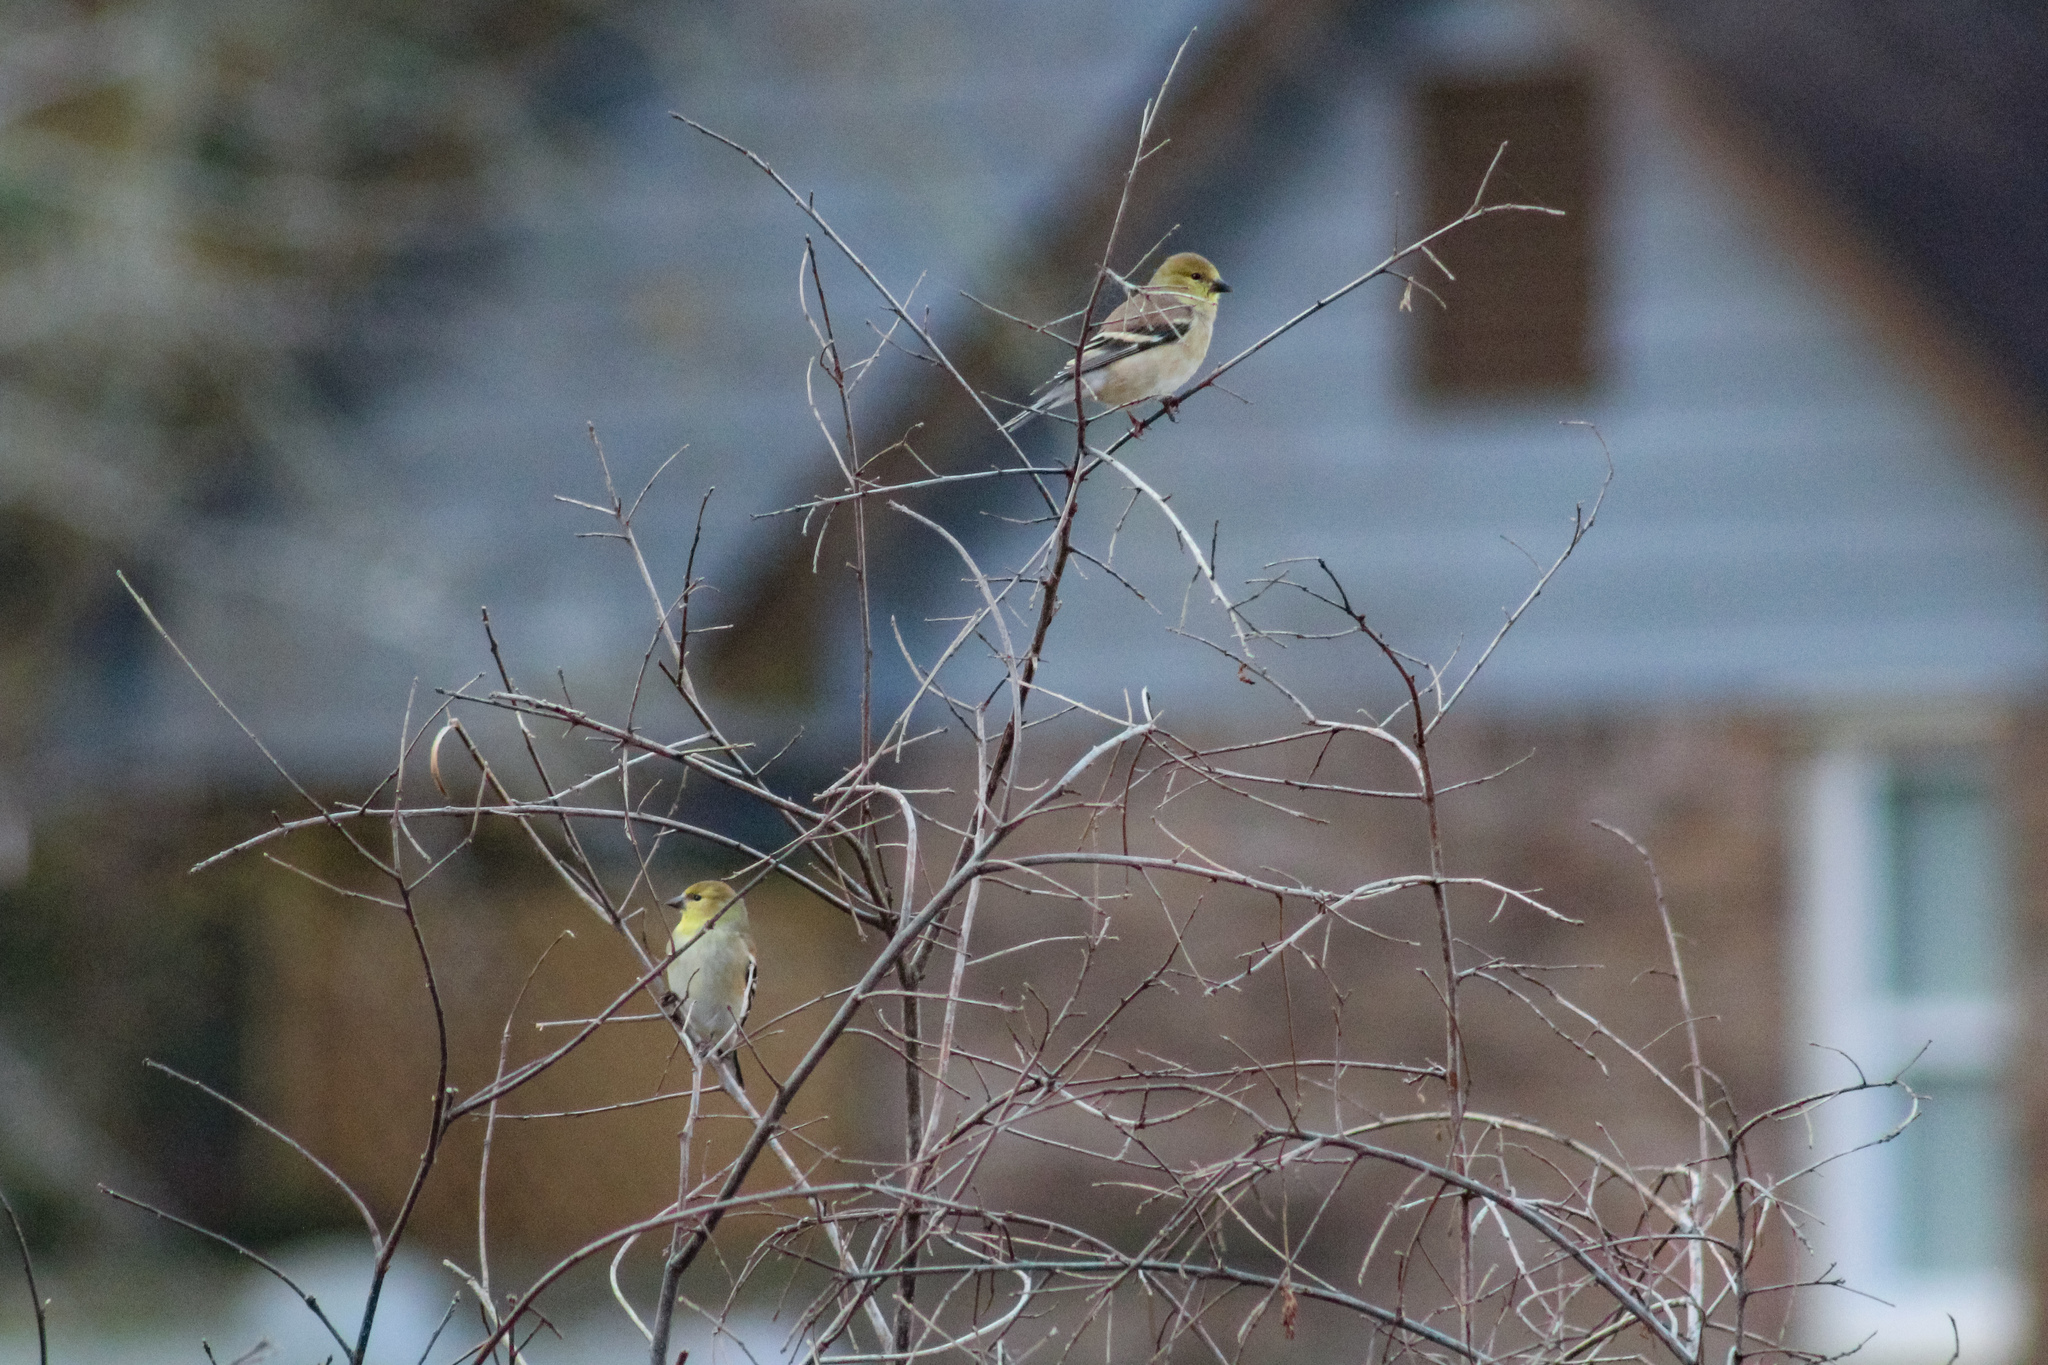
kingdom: Animalia
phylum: Chordata
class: Aves
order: Passeriformes
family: Fringillidae
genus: Spinus
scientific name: Spinus tristis
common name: American goldfinch
